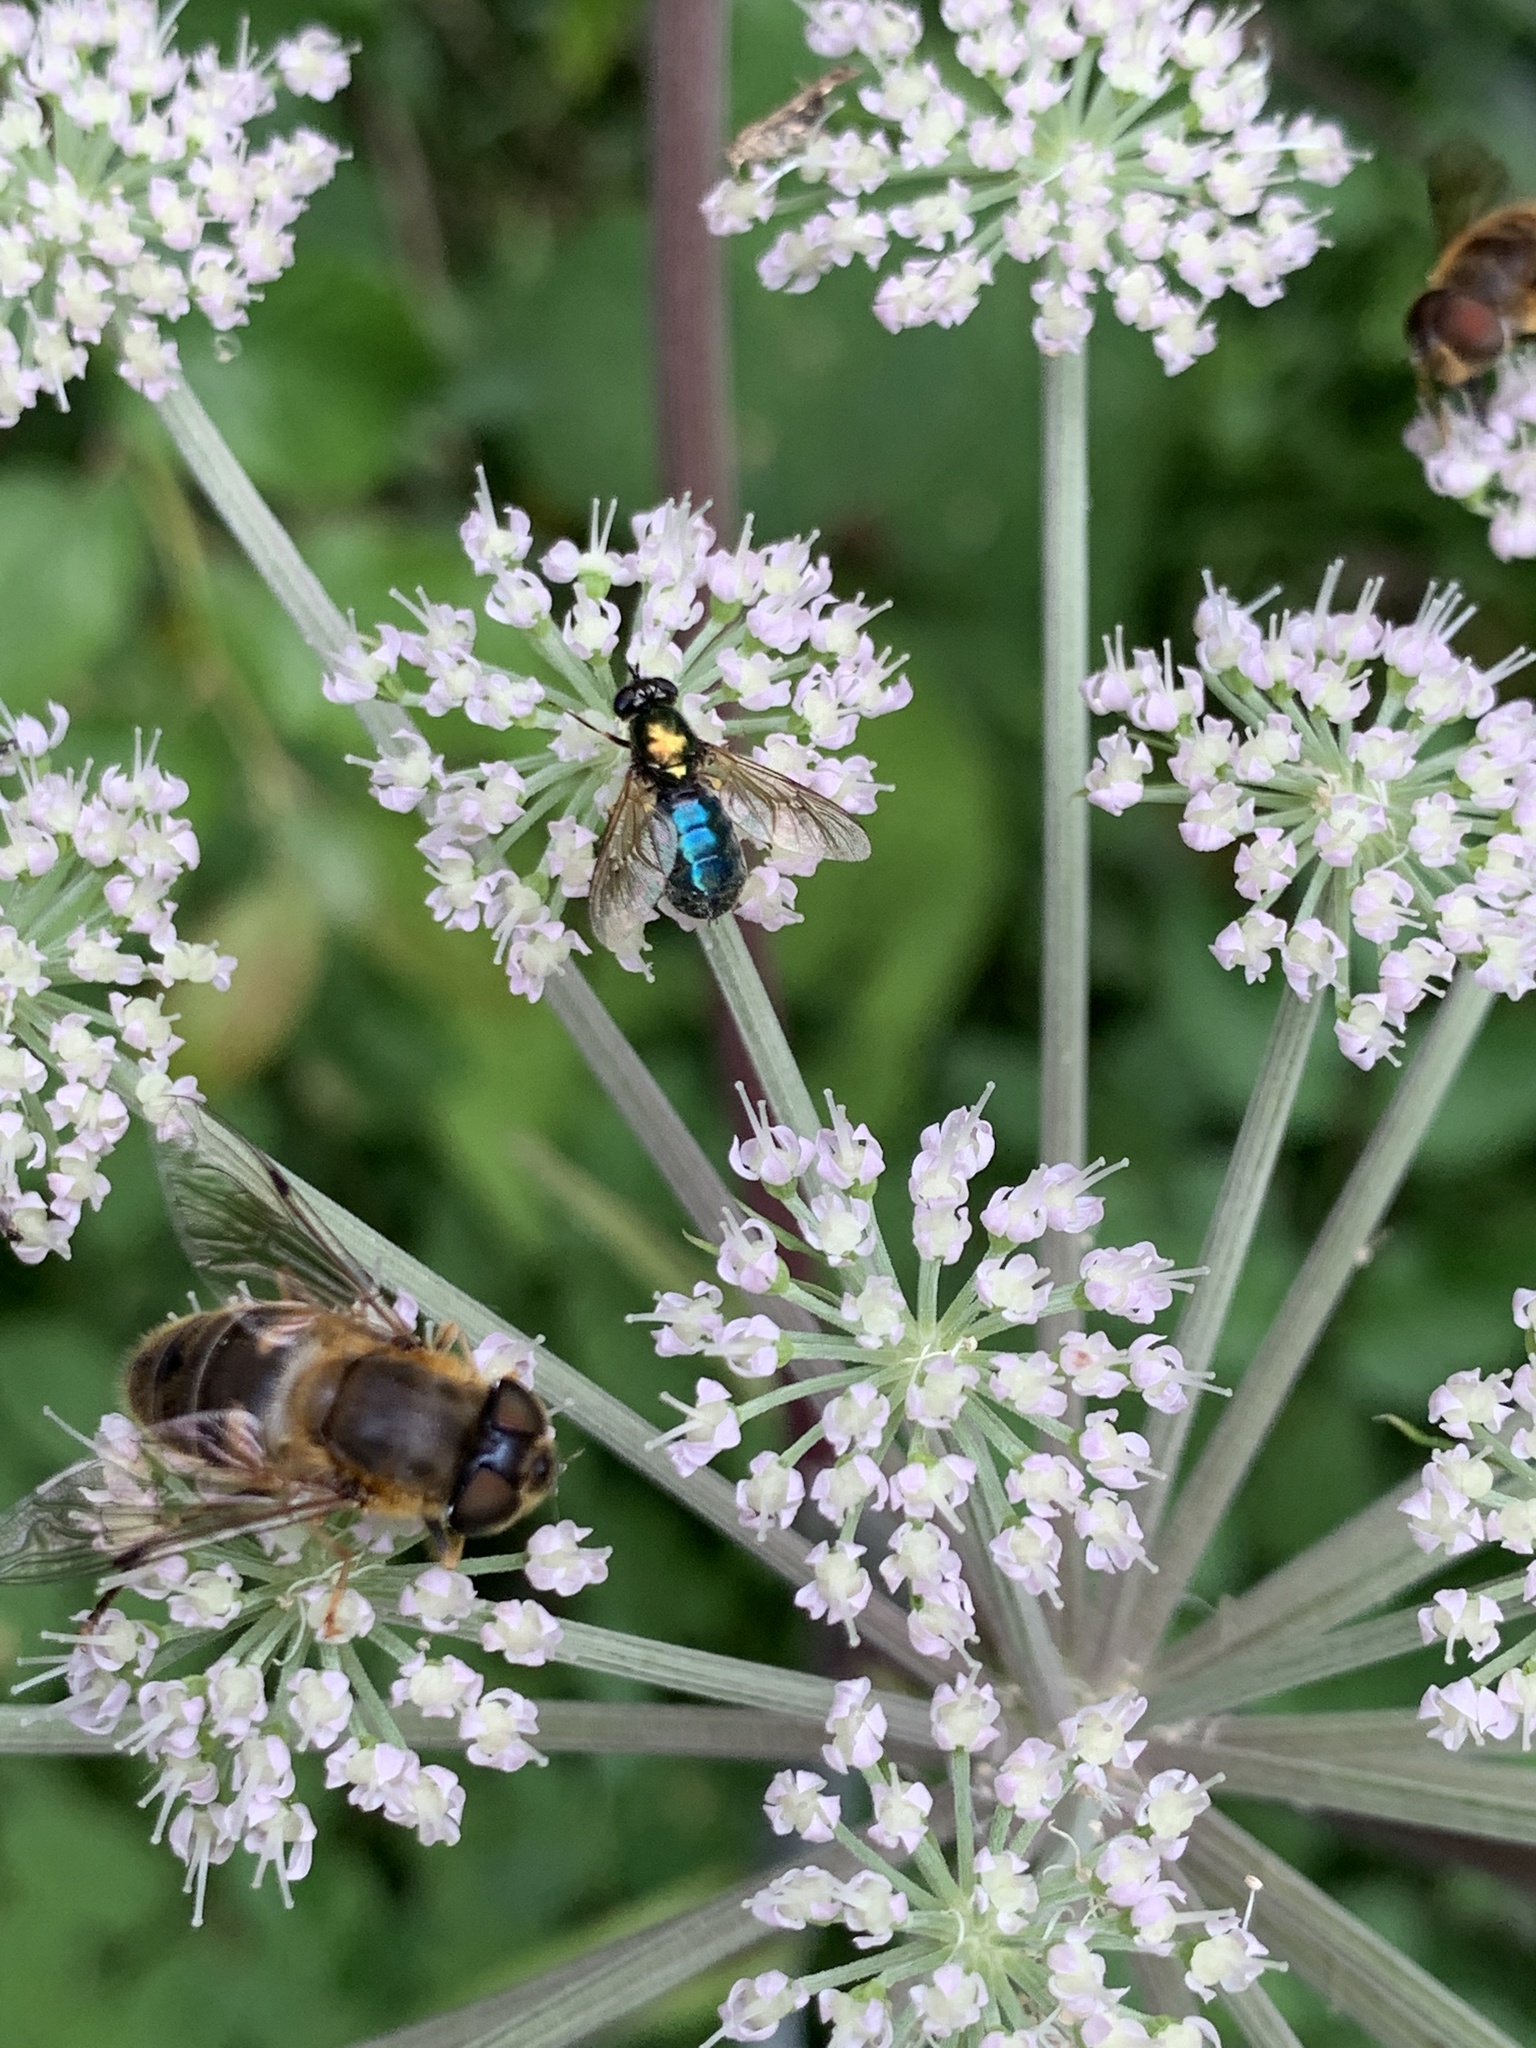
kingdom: Animalia
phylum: Arthropoda
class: Insecta
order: Diptera
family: Stratiomyidae
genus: Chloromyia
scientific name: Chloromyia formosa
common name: Soldier fly
